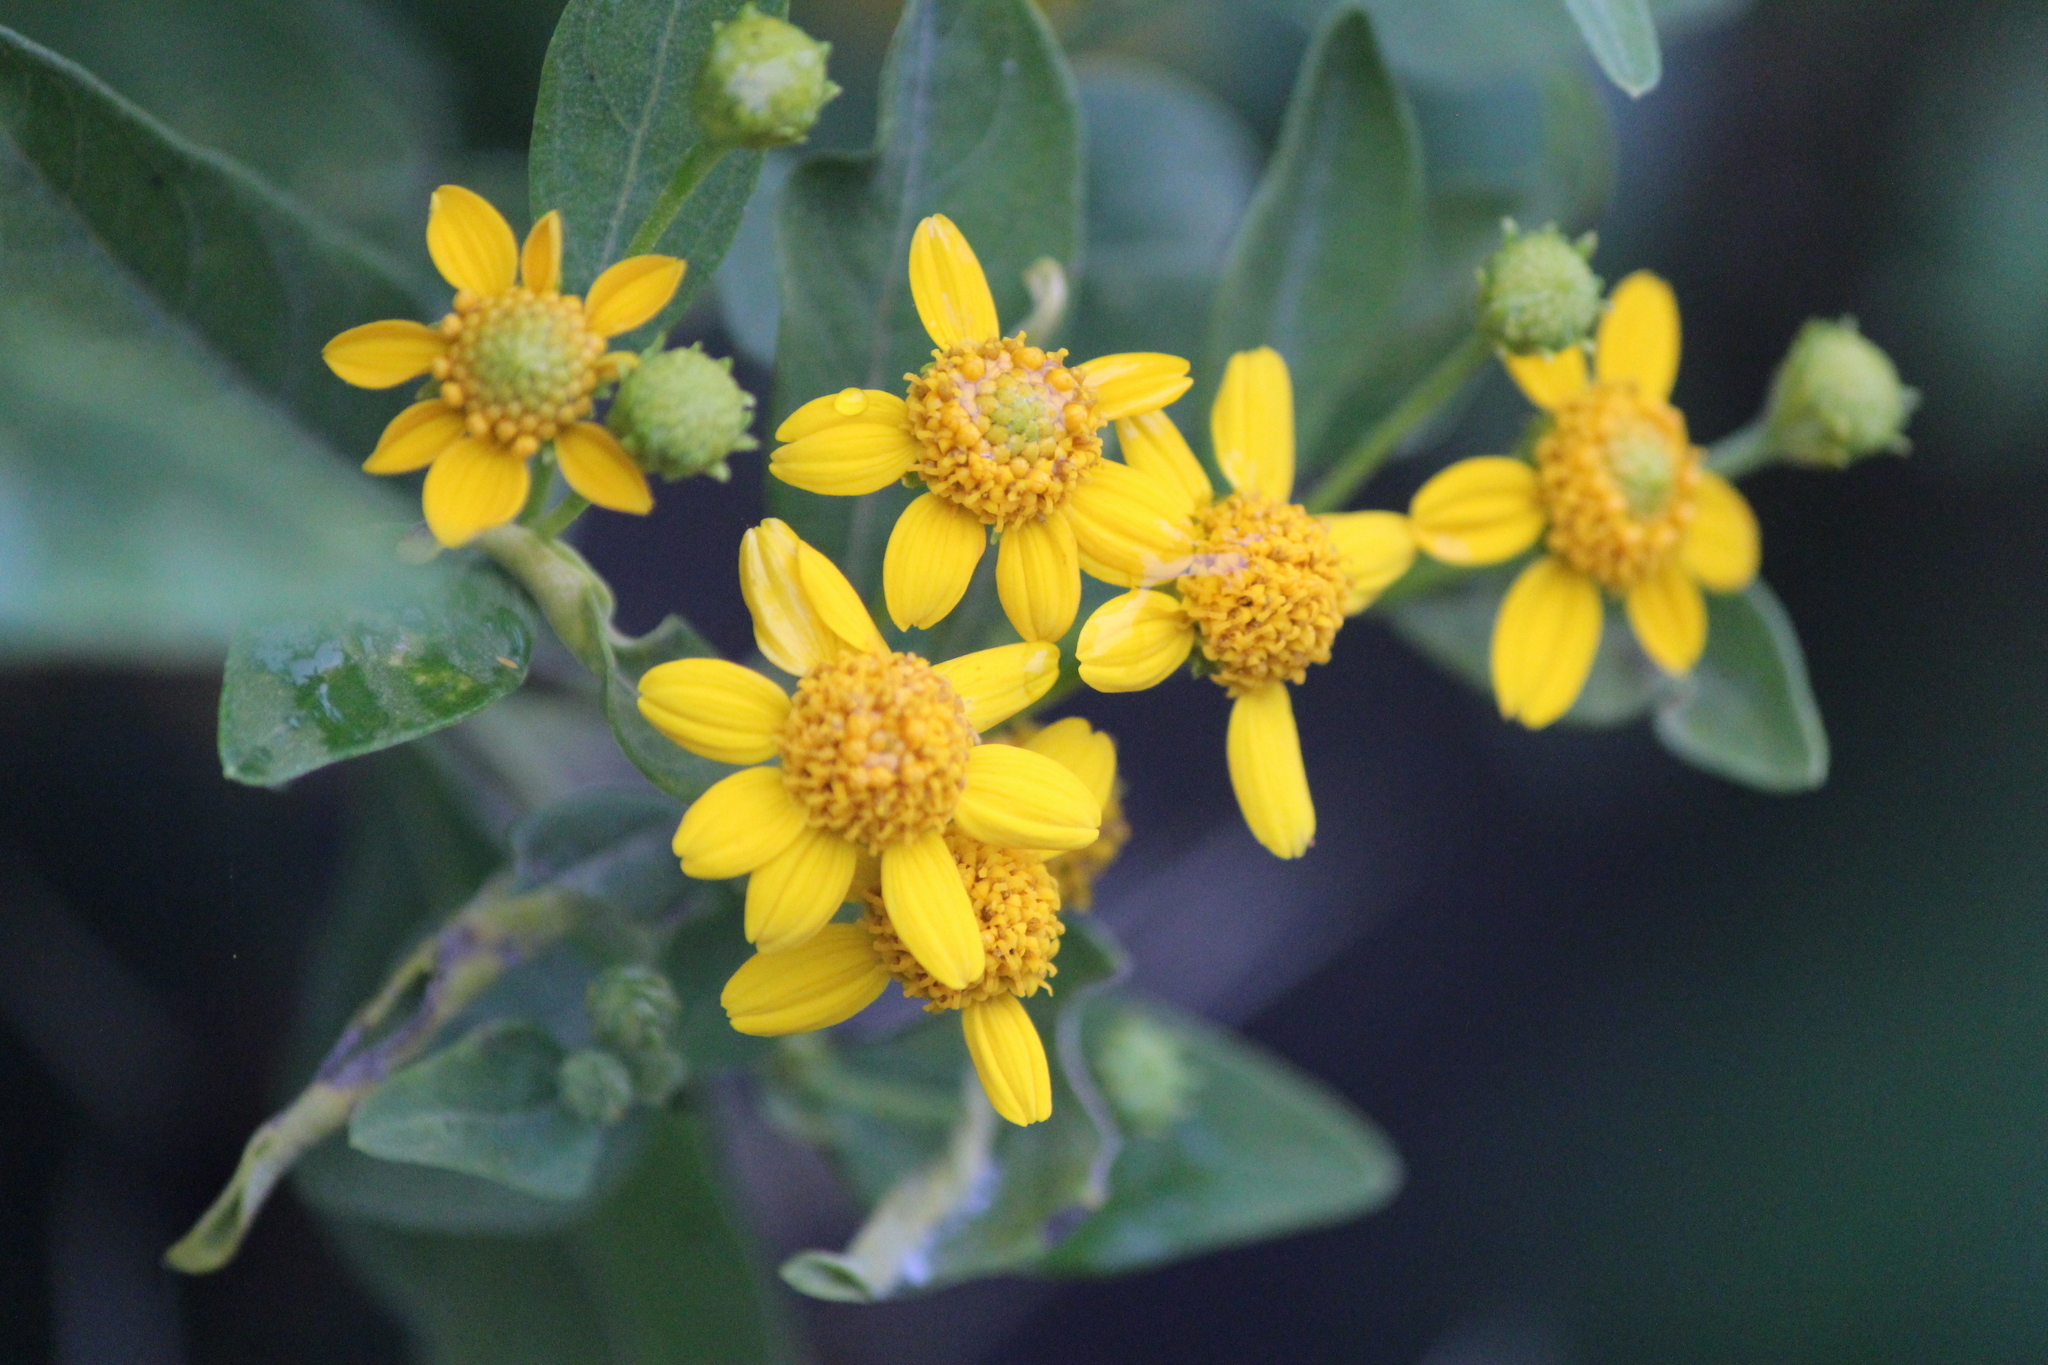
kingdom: Plantae
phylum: Tracheophyta
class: Magnoliopsida
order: Asterales
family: Asteraceae
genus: Zaluzania
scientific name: Zaluzania augusta
